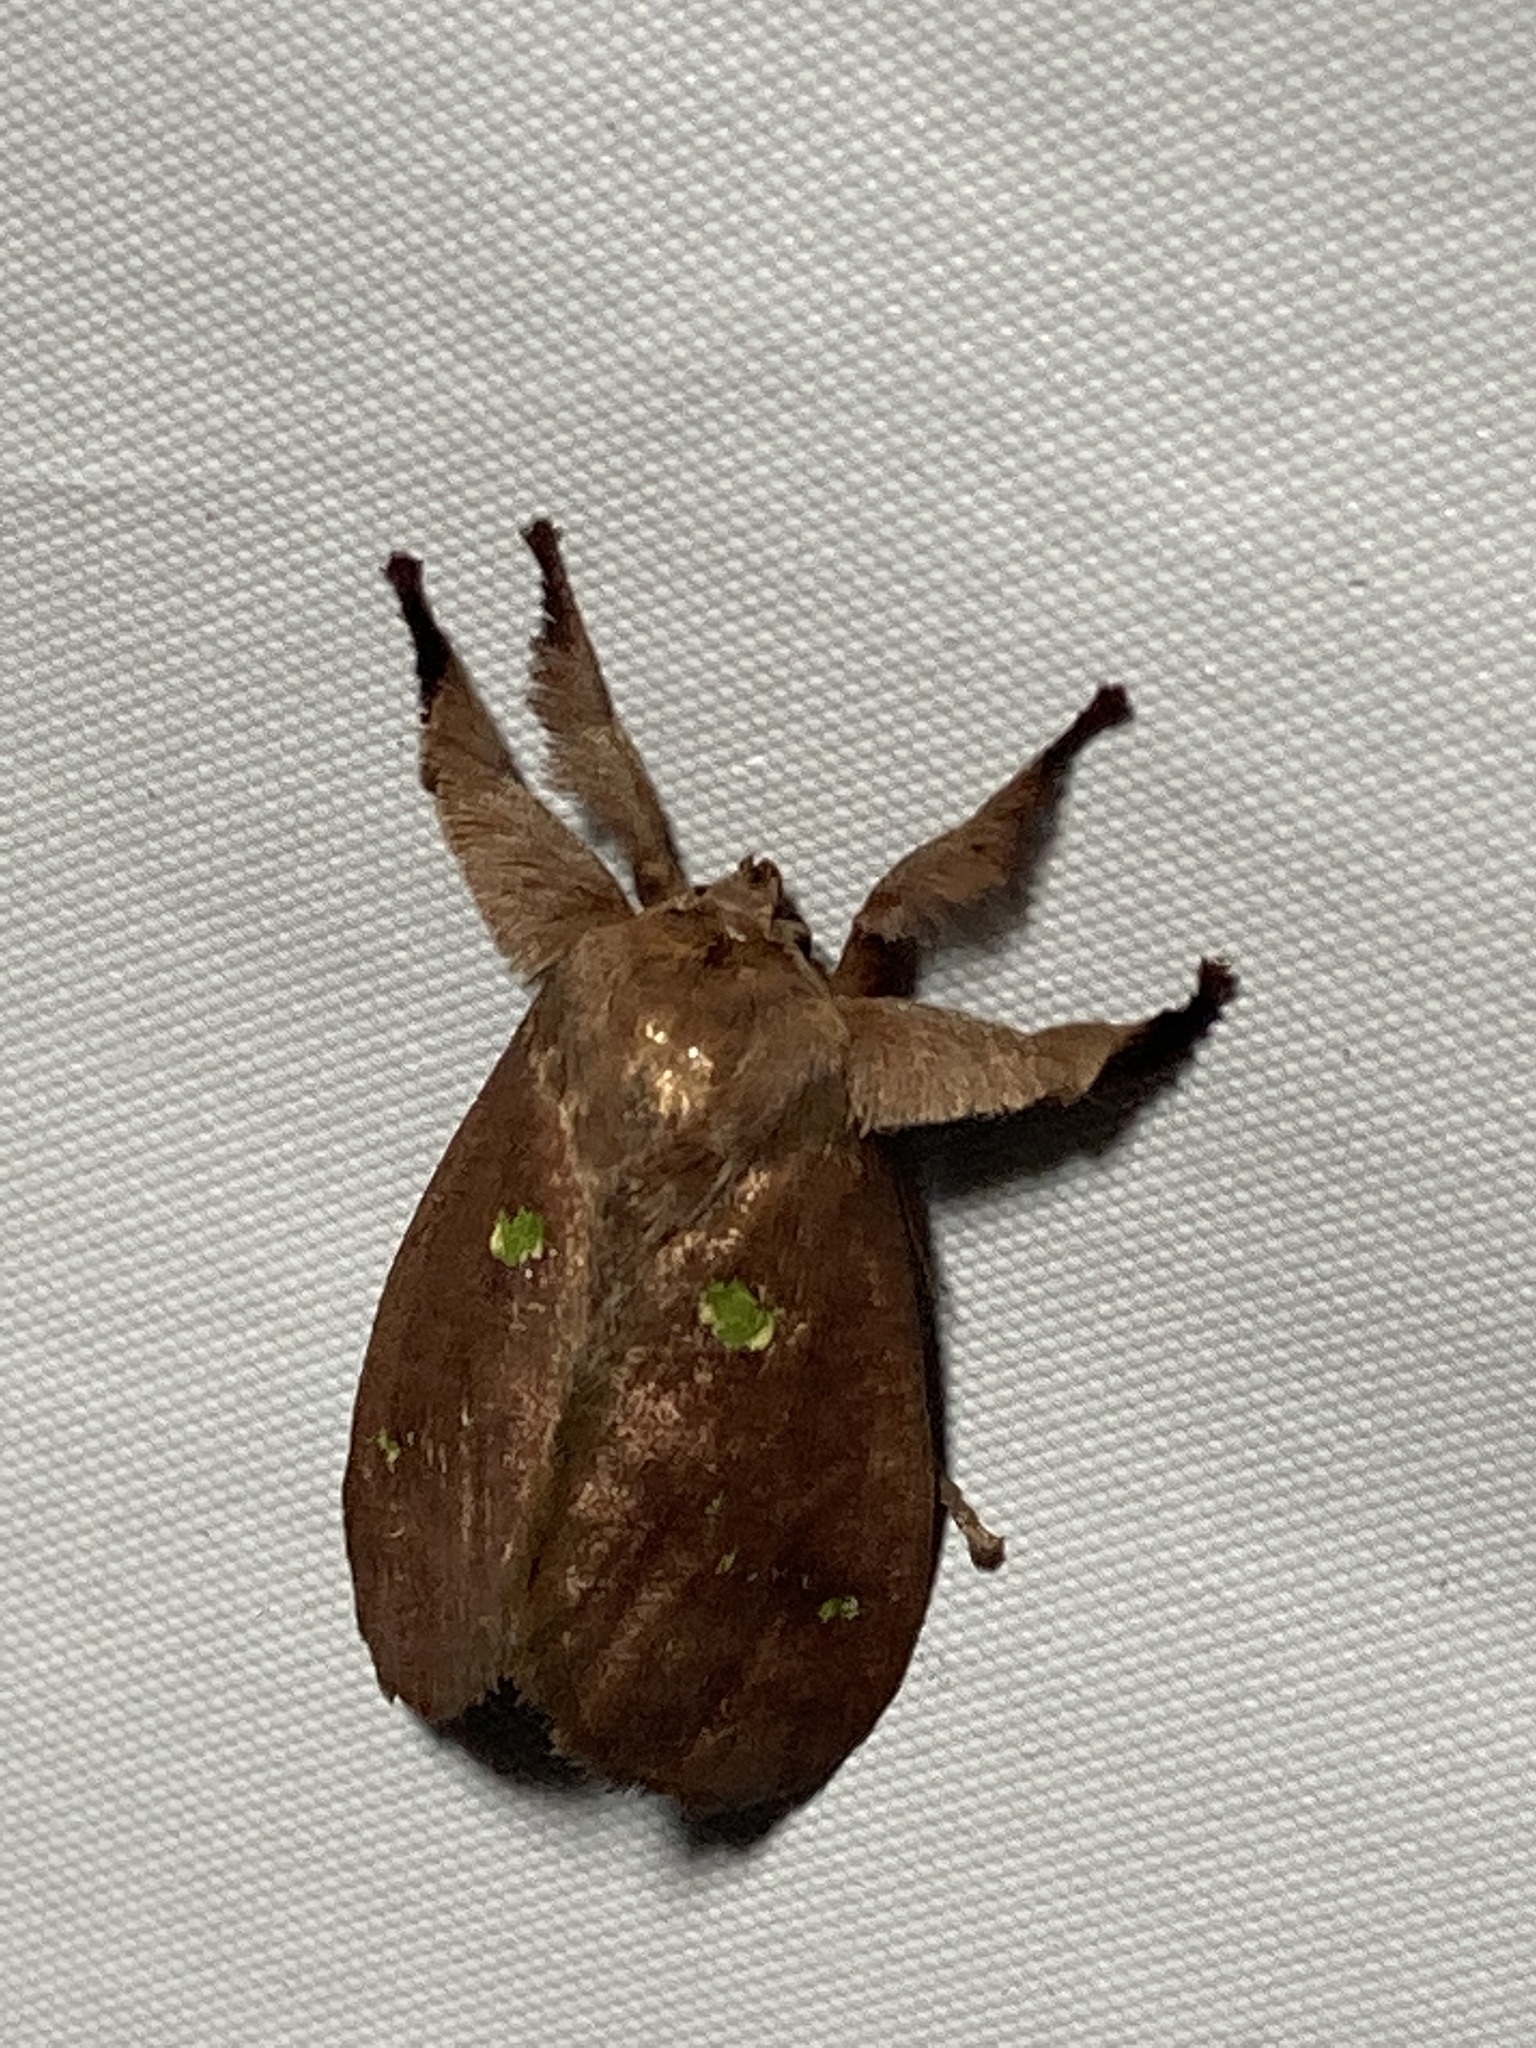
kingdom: Animalia
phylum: Arthropoda
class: Insecta
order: Lepidoptera
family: Limacodidae
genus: Euclea
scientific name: Euclea norba
